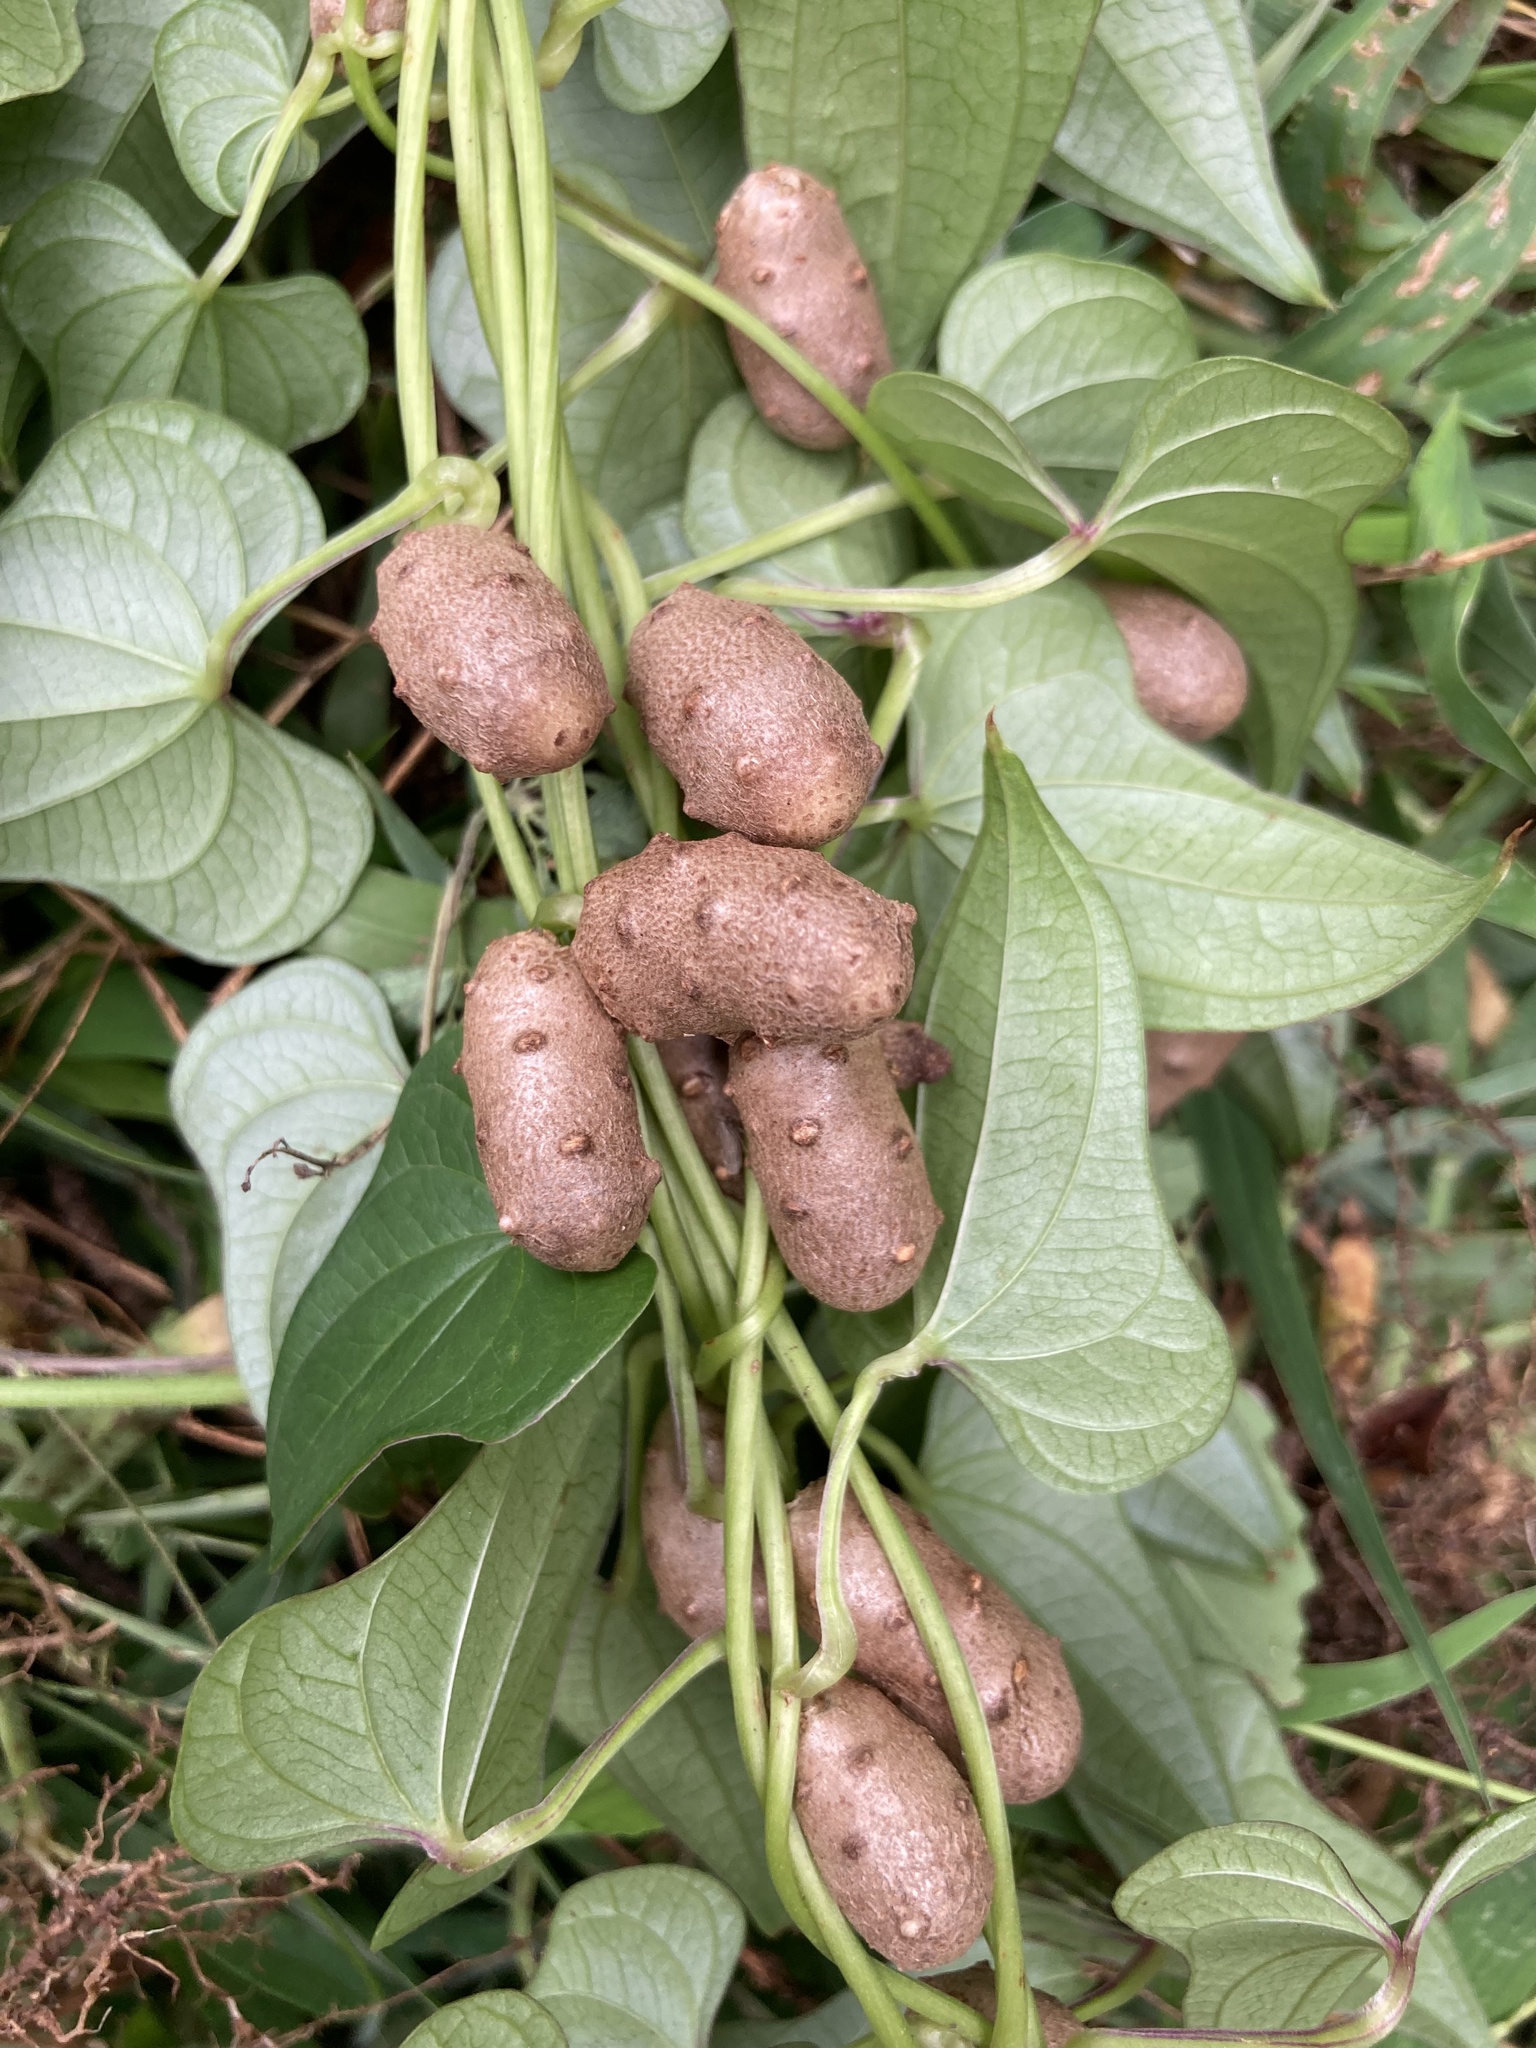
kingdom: Plantae
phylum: Tracheophyta
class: Liliopsida
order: Dioscoreales
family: Dioscoreaceae
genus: Dioscorea
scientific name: Dioscorea polystachya
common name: Chinese yam
